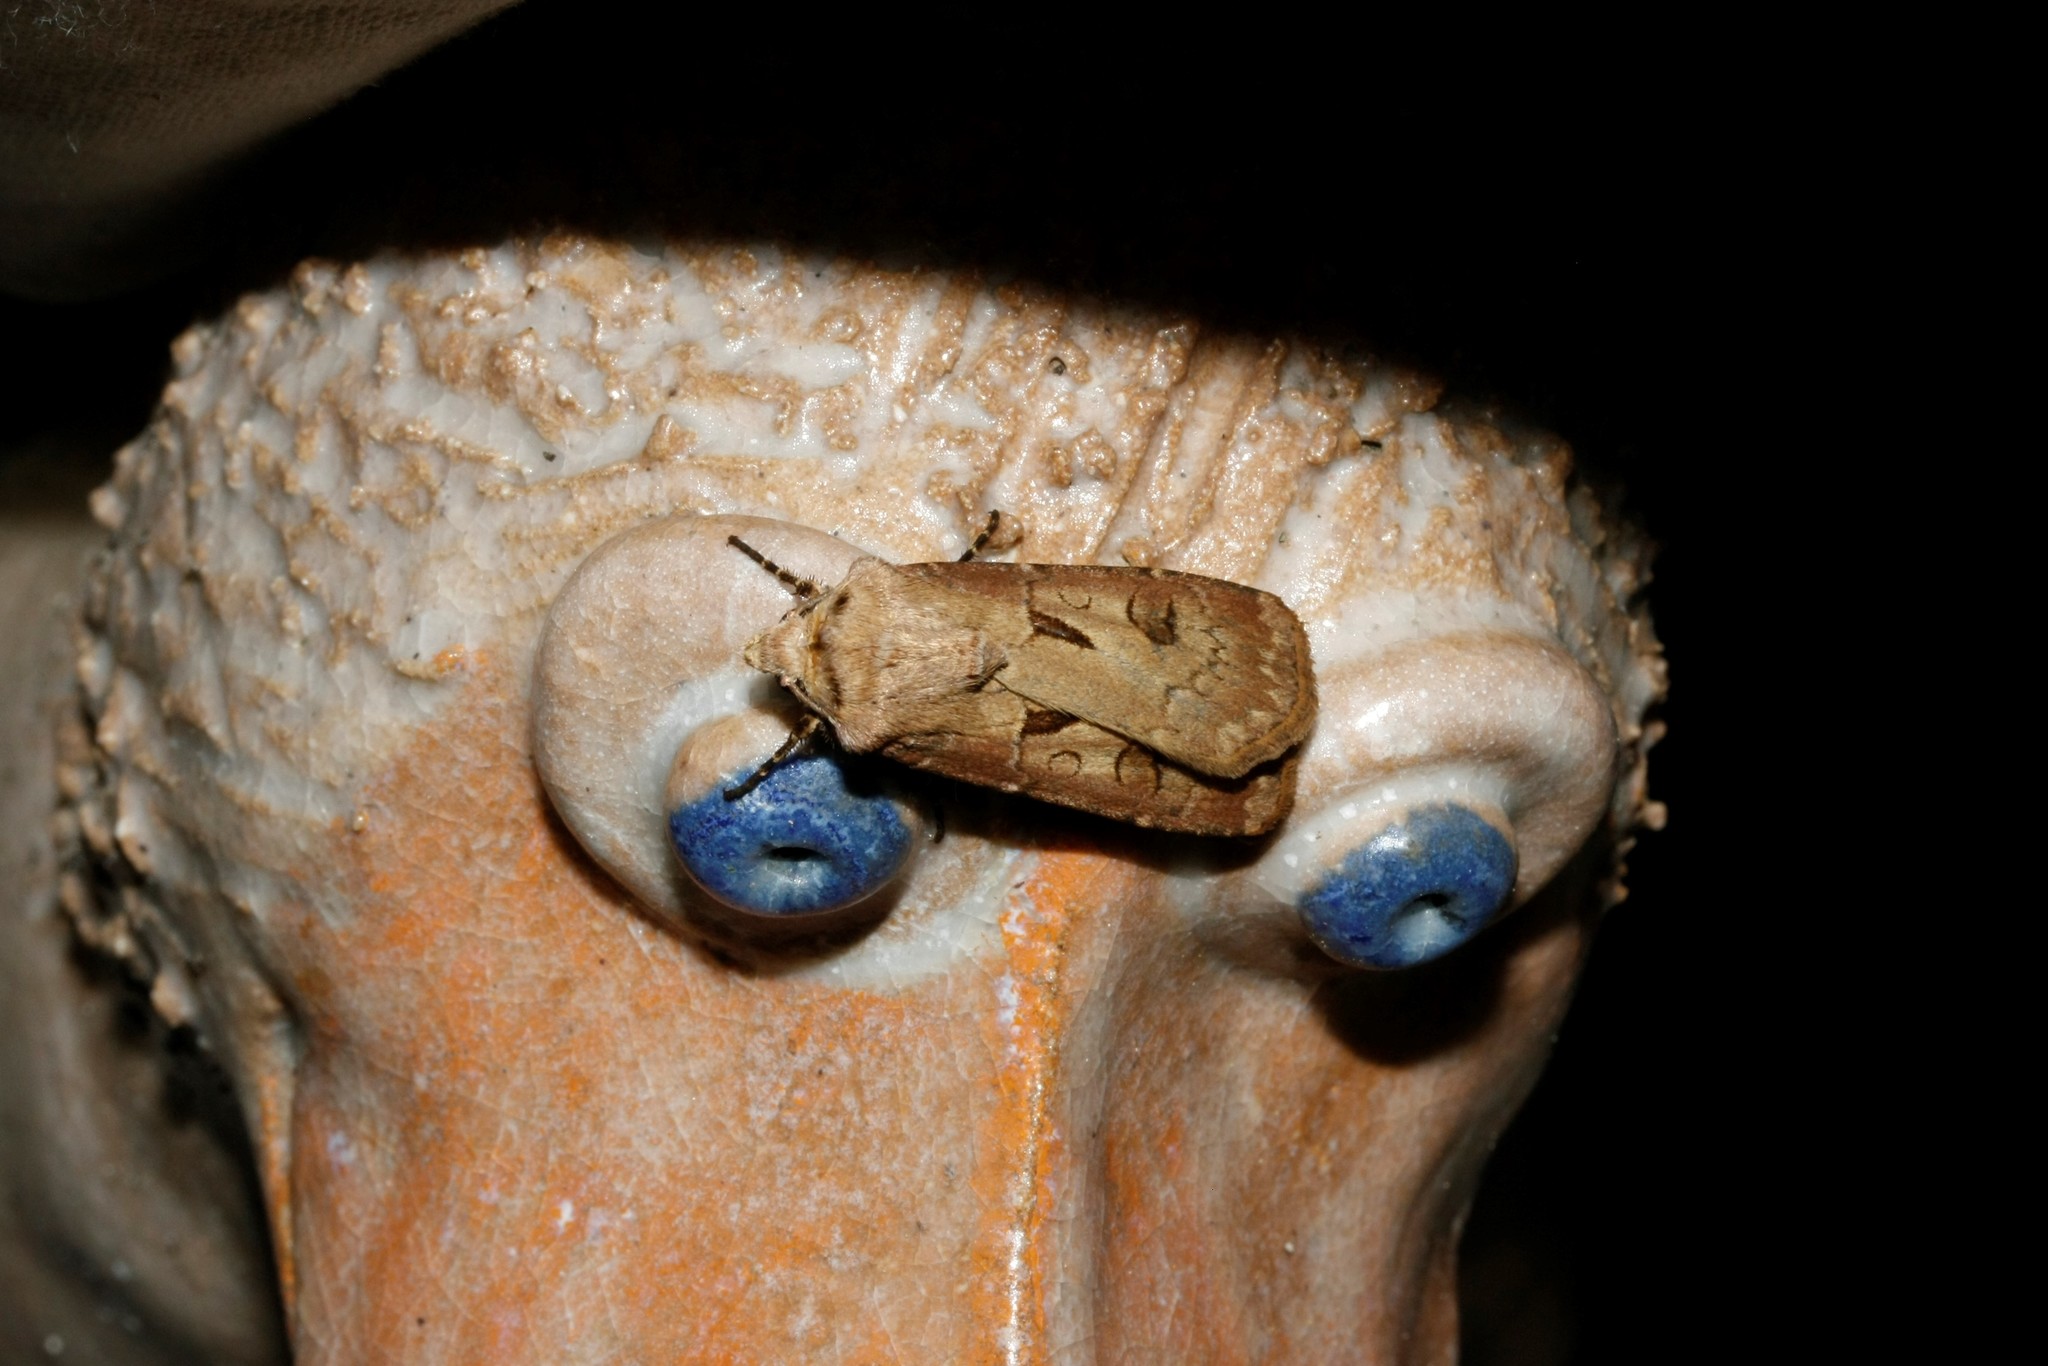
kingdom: Animalia
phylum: Arthropoda
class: Insecta
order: Lepidoptera
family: Noctuidae
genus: Agrotis
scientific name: Agrotis exclamationis
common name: Heart and dart
